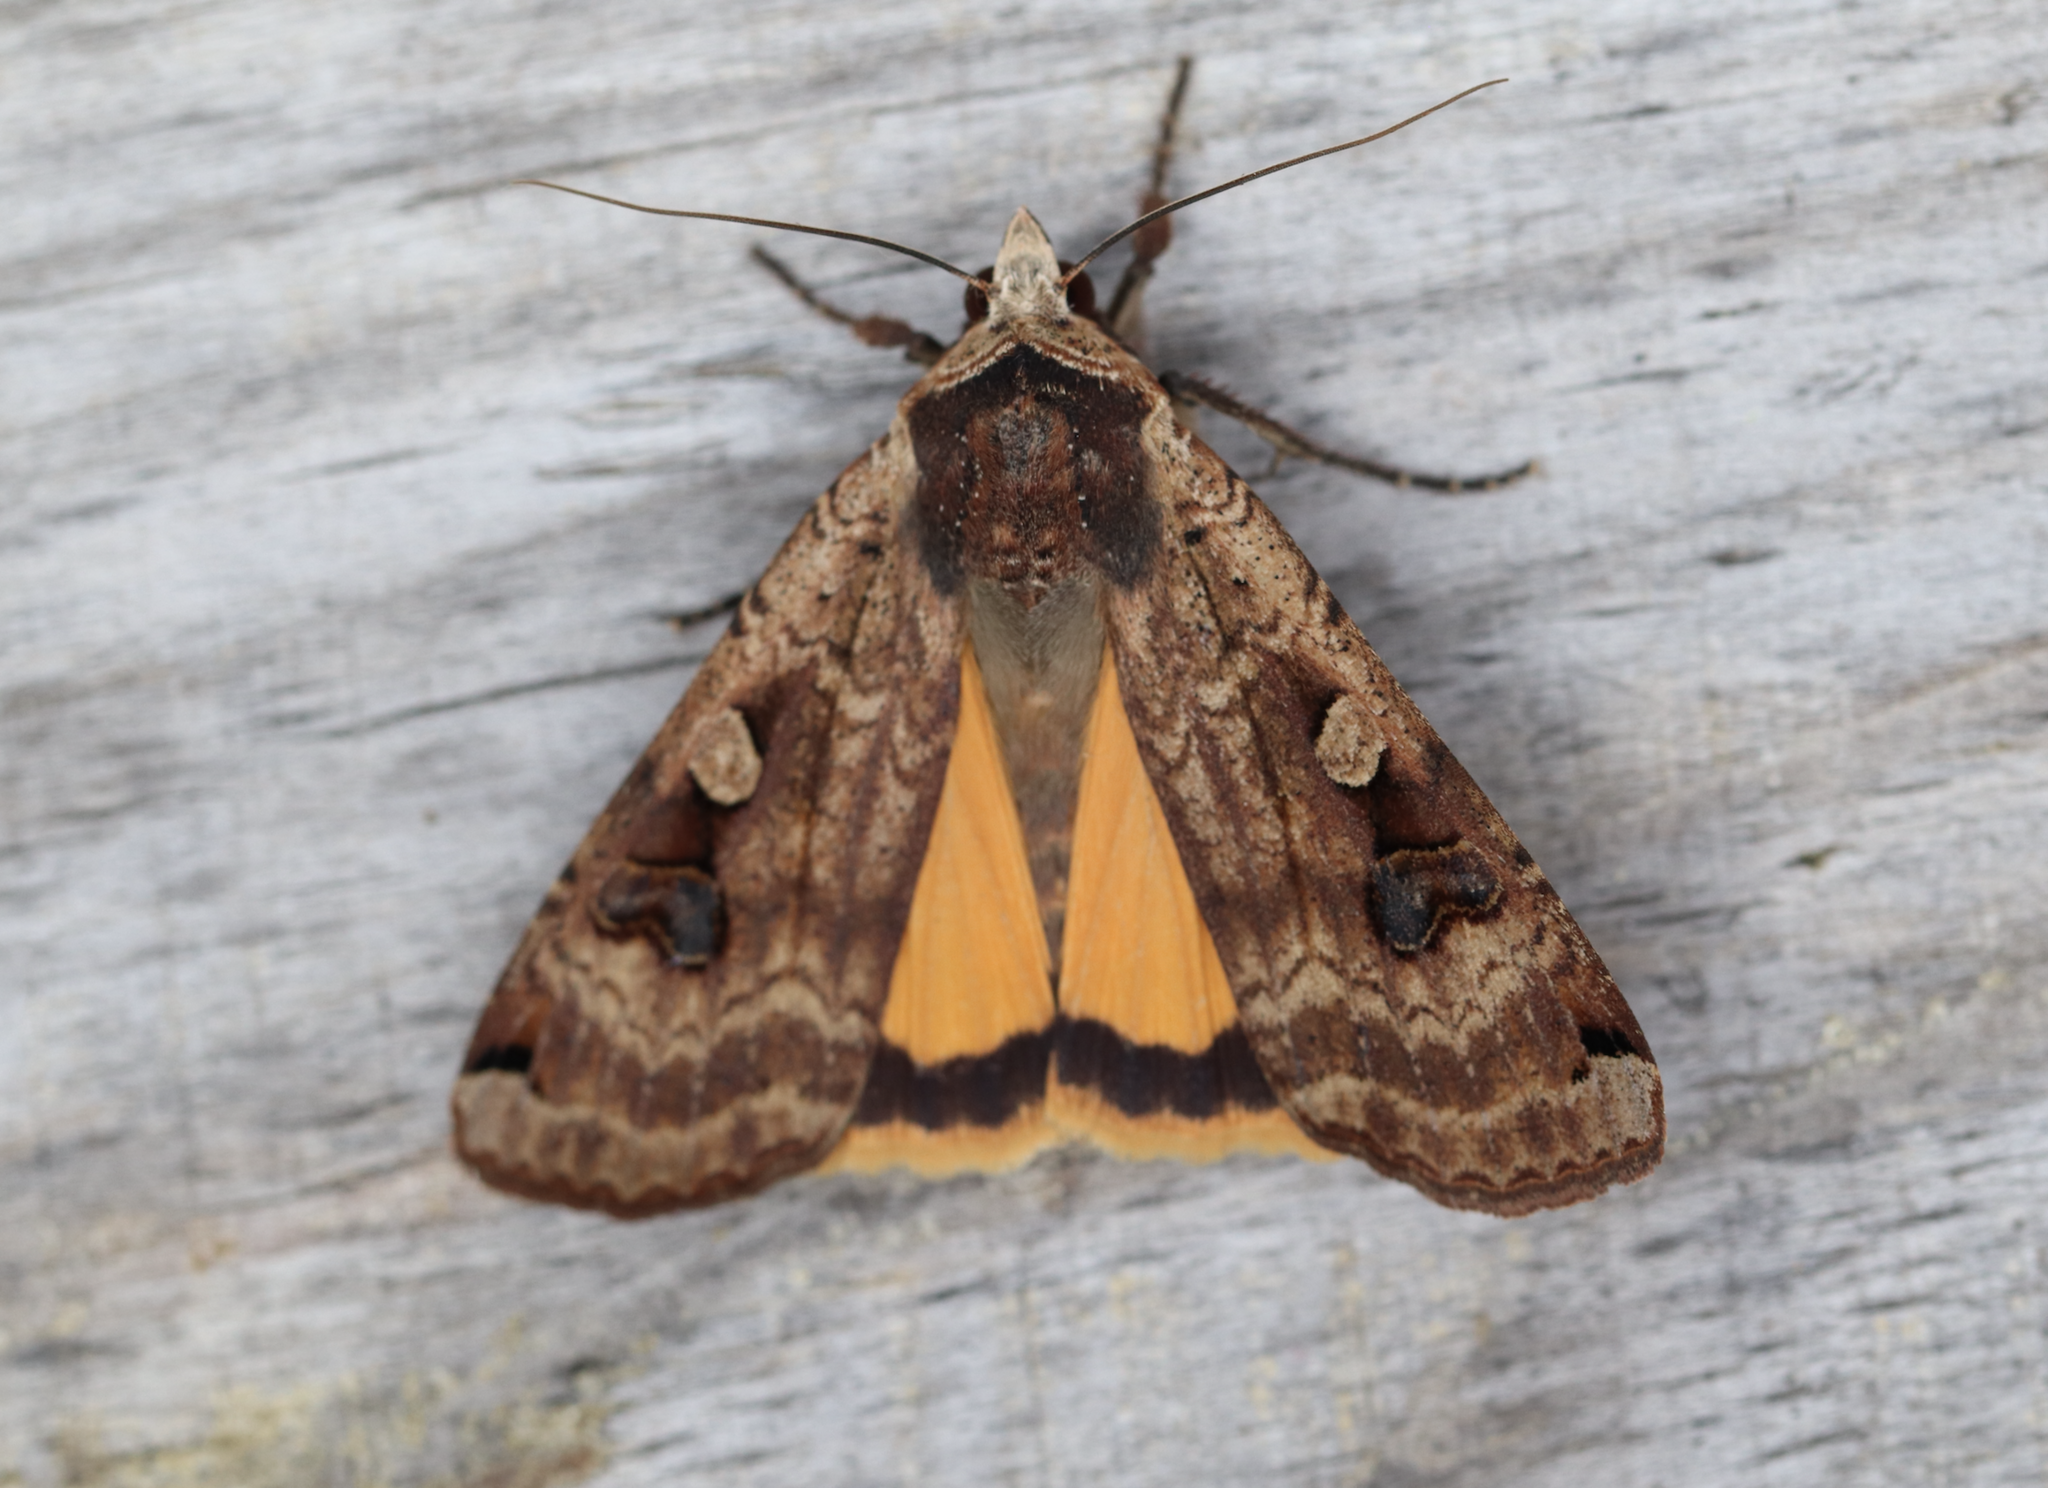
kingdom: Animalia
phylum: Arthropoda
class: Insecta
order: Lepidoptera
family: Noctuidae
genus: Noctua
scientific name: Noctua pronuba
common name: Large yellow underwing
